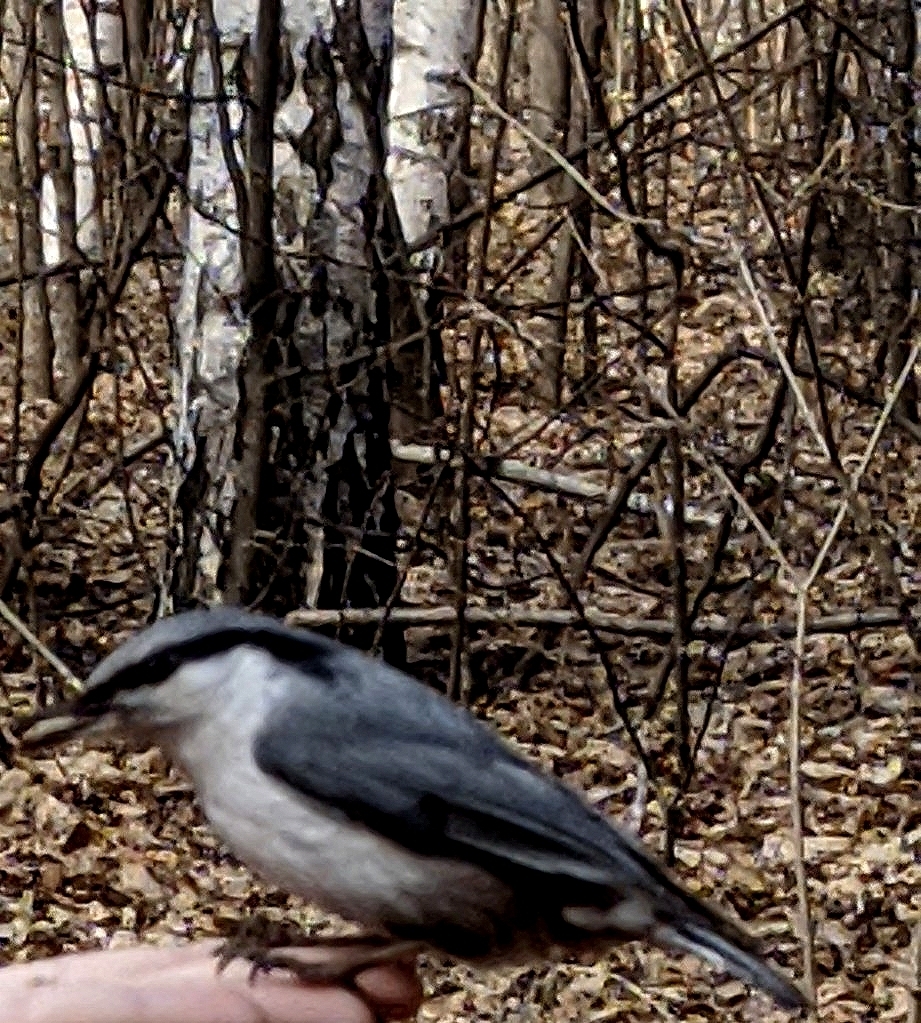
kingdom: Animalia
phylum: Chordata
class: Aves
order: Passeriformes
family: Sittidae
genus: Sitta
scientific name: Sitta europaea
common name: Eurasian nuthatch
